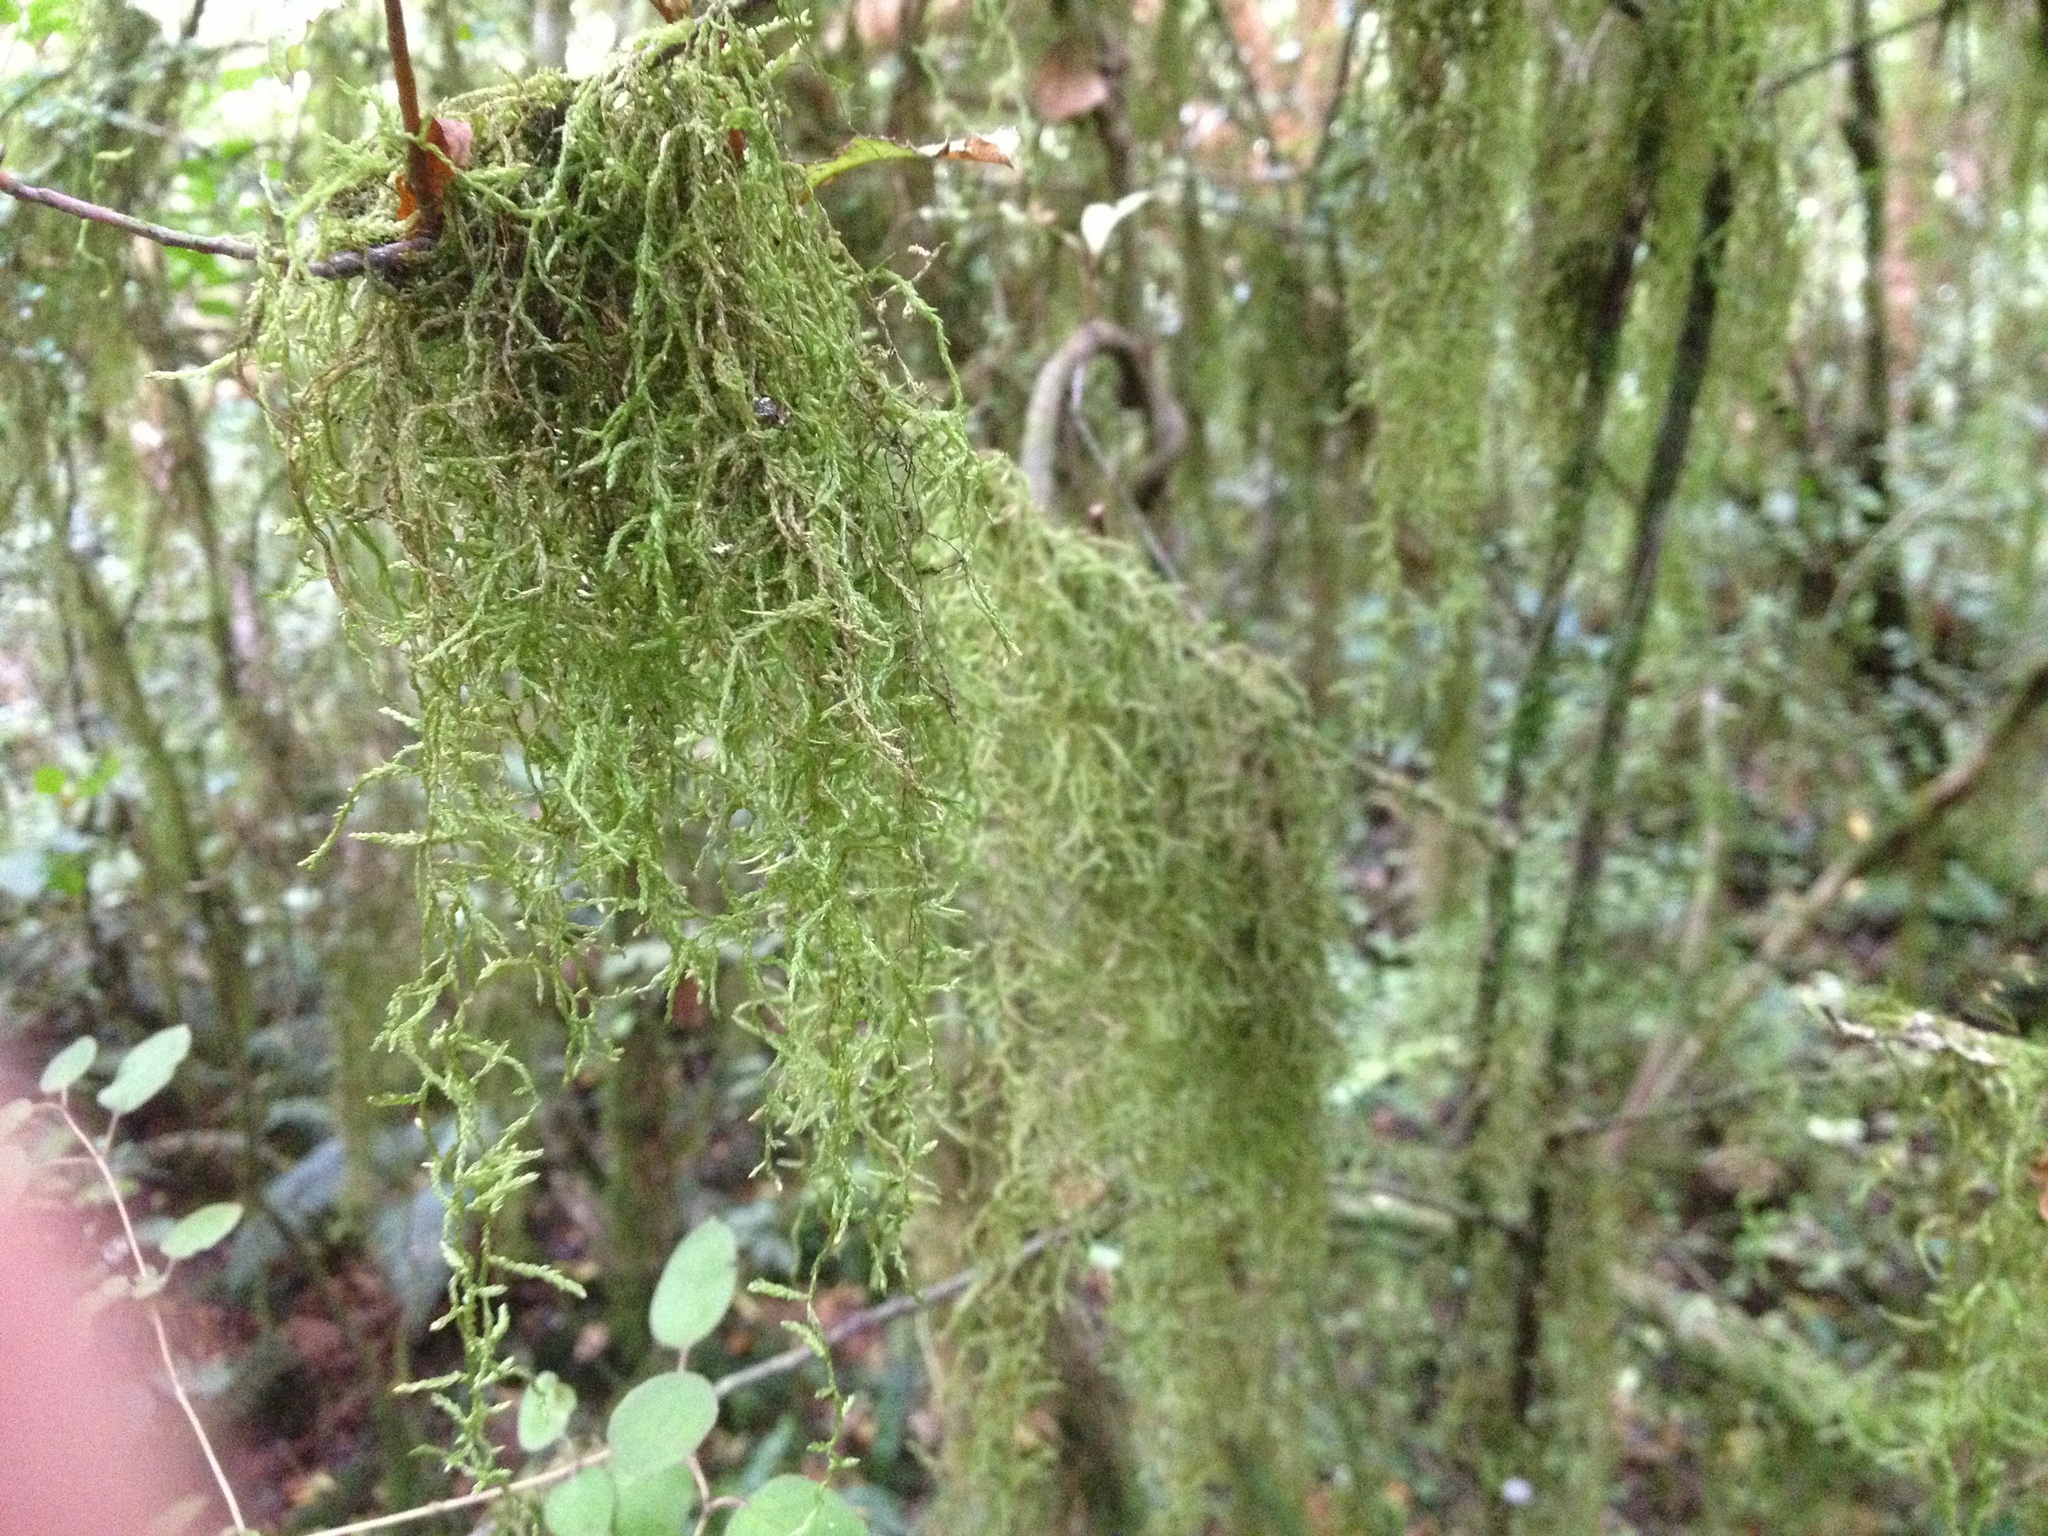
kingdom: Plantae
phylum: Bryophyta
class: Bryopsida
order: Hypnales
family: Lembophyllaceae
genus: Weymouthia
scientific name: Weymouthia mollis
